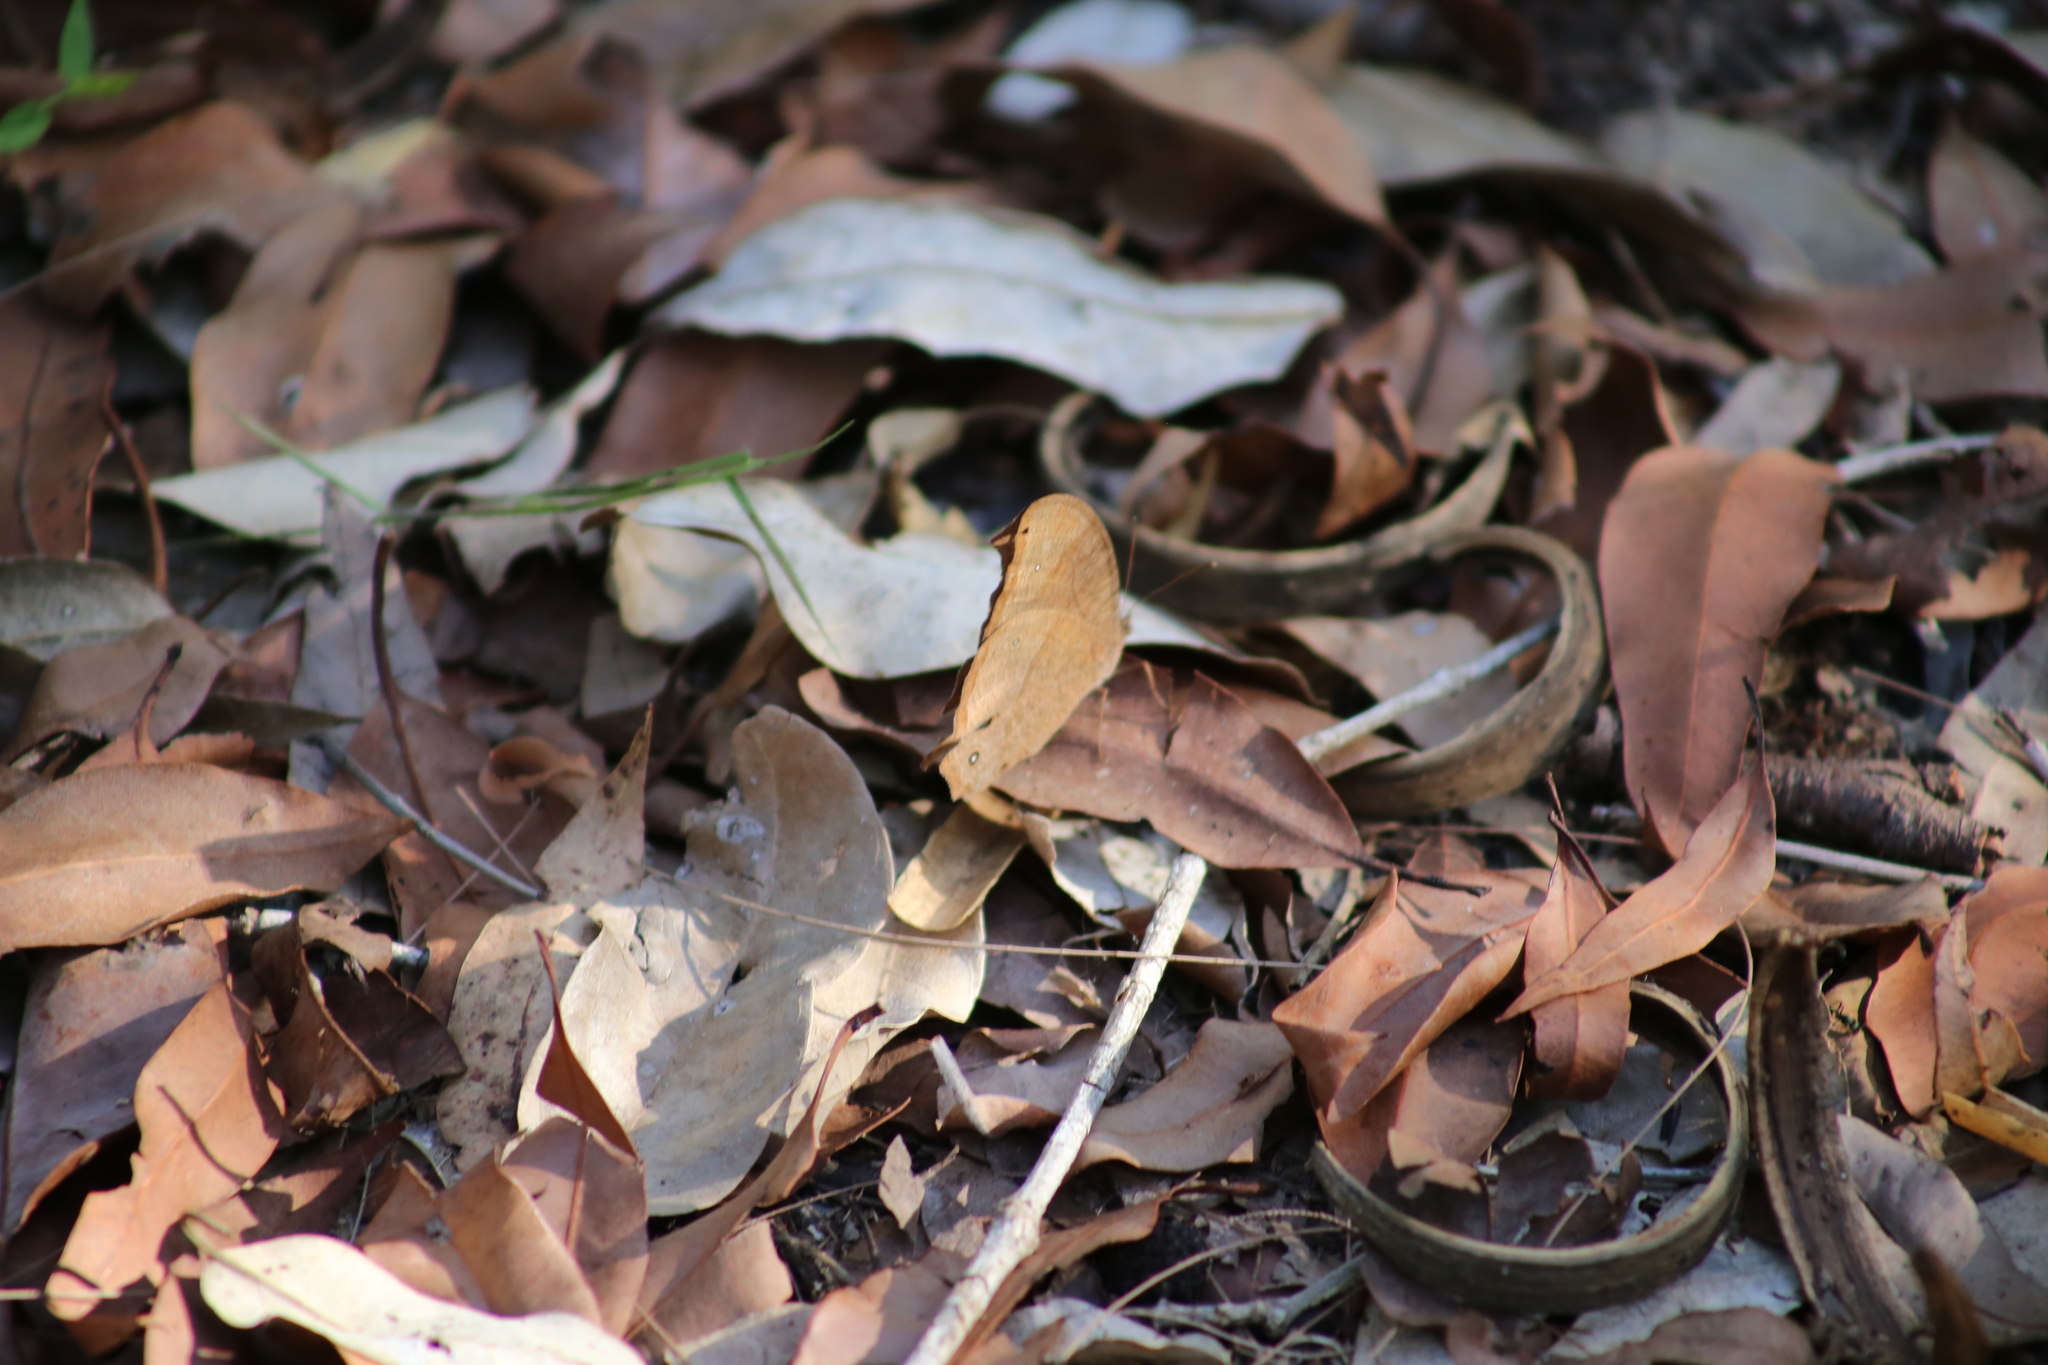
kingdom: Animalia
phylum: Arthropoda
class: Insecta
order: Lepidoptera
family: Nymphalidae
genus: Melanitis
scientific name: Melanitis leda
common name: Twilight brown
